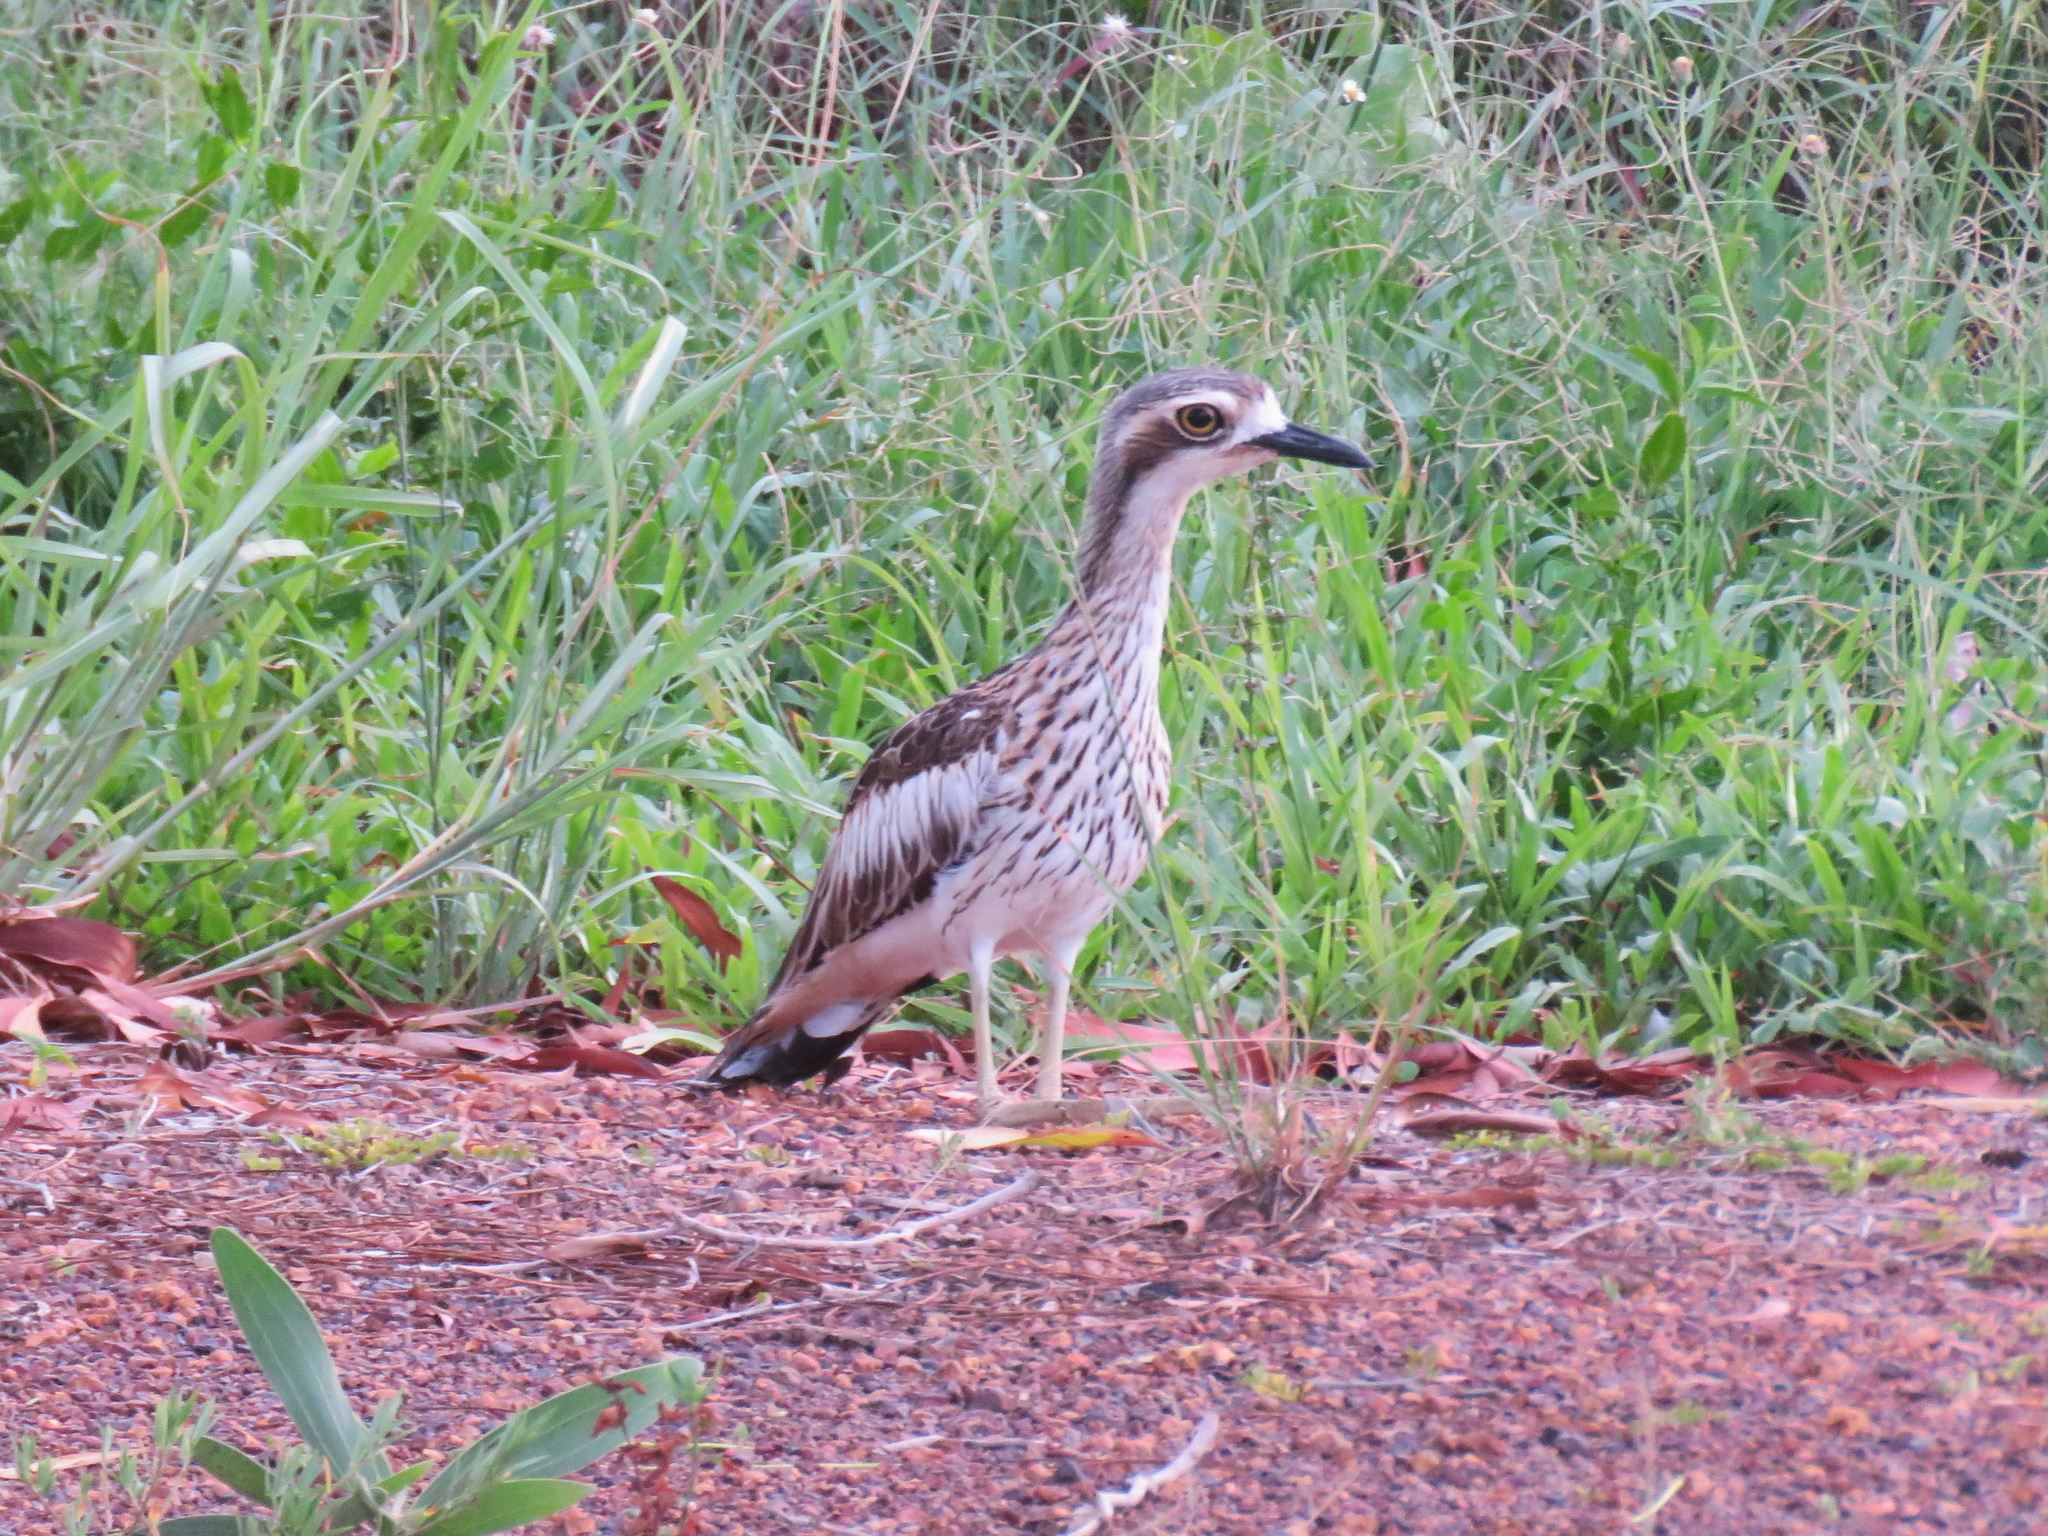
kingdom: Animalia
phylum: Chordata
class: Aves
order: Charadriiformes
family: Burhinidae
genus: Burhinus
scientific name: Burhinus grallarius
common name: Bush stone-curlew
